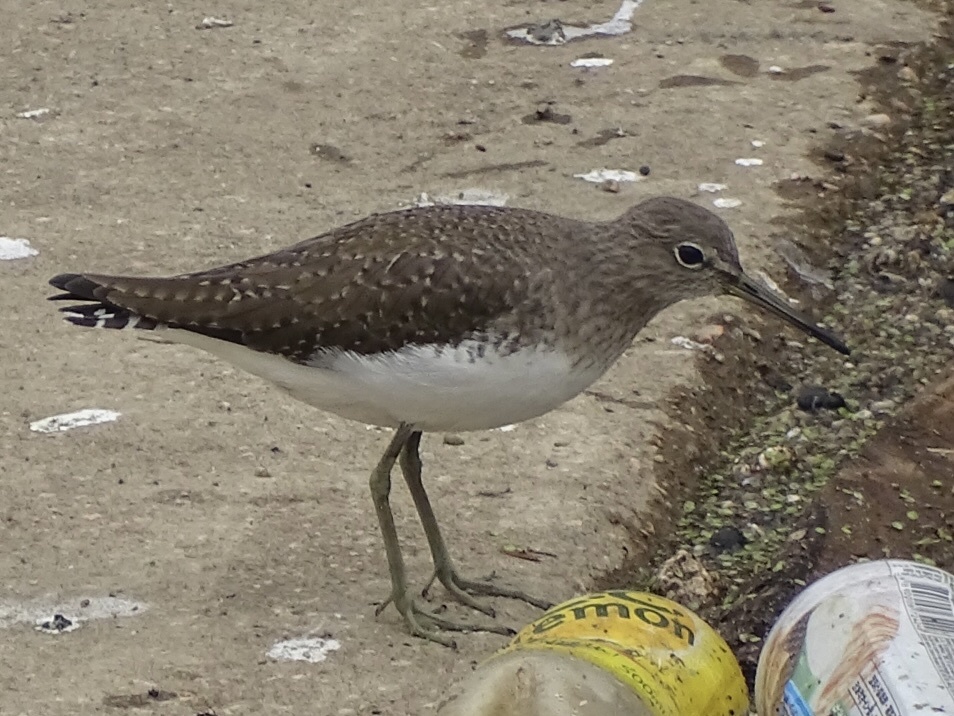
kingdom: Animalia
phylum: Chordata
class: Aves
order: Charadriiformes
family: Scolopacidae
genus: Tringa
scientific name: Tringa ochropus
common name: Green sandpiper
